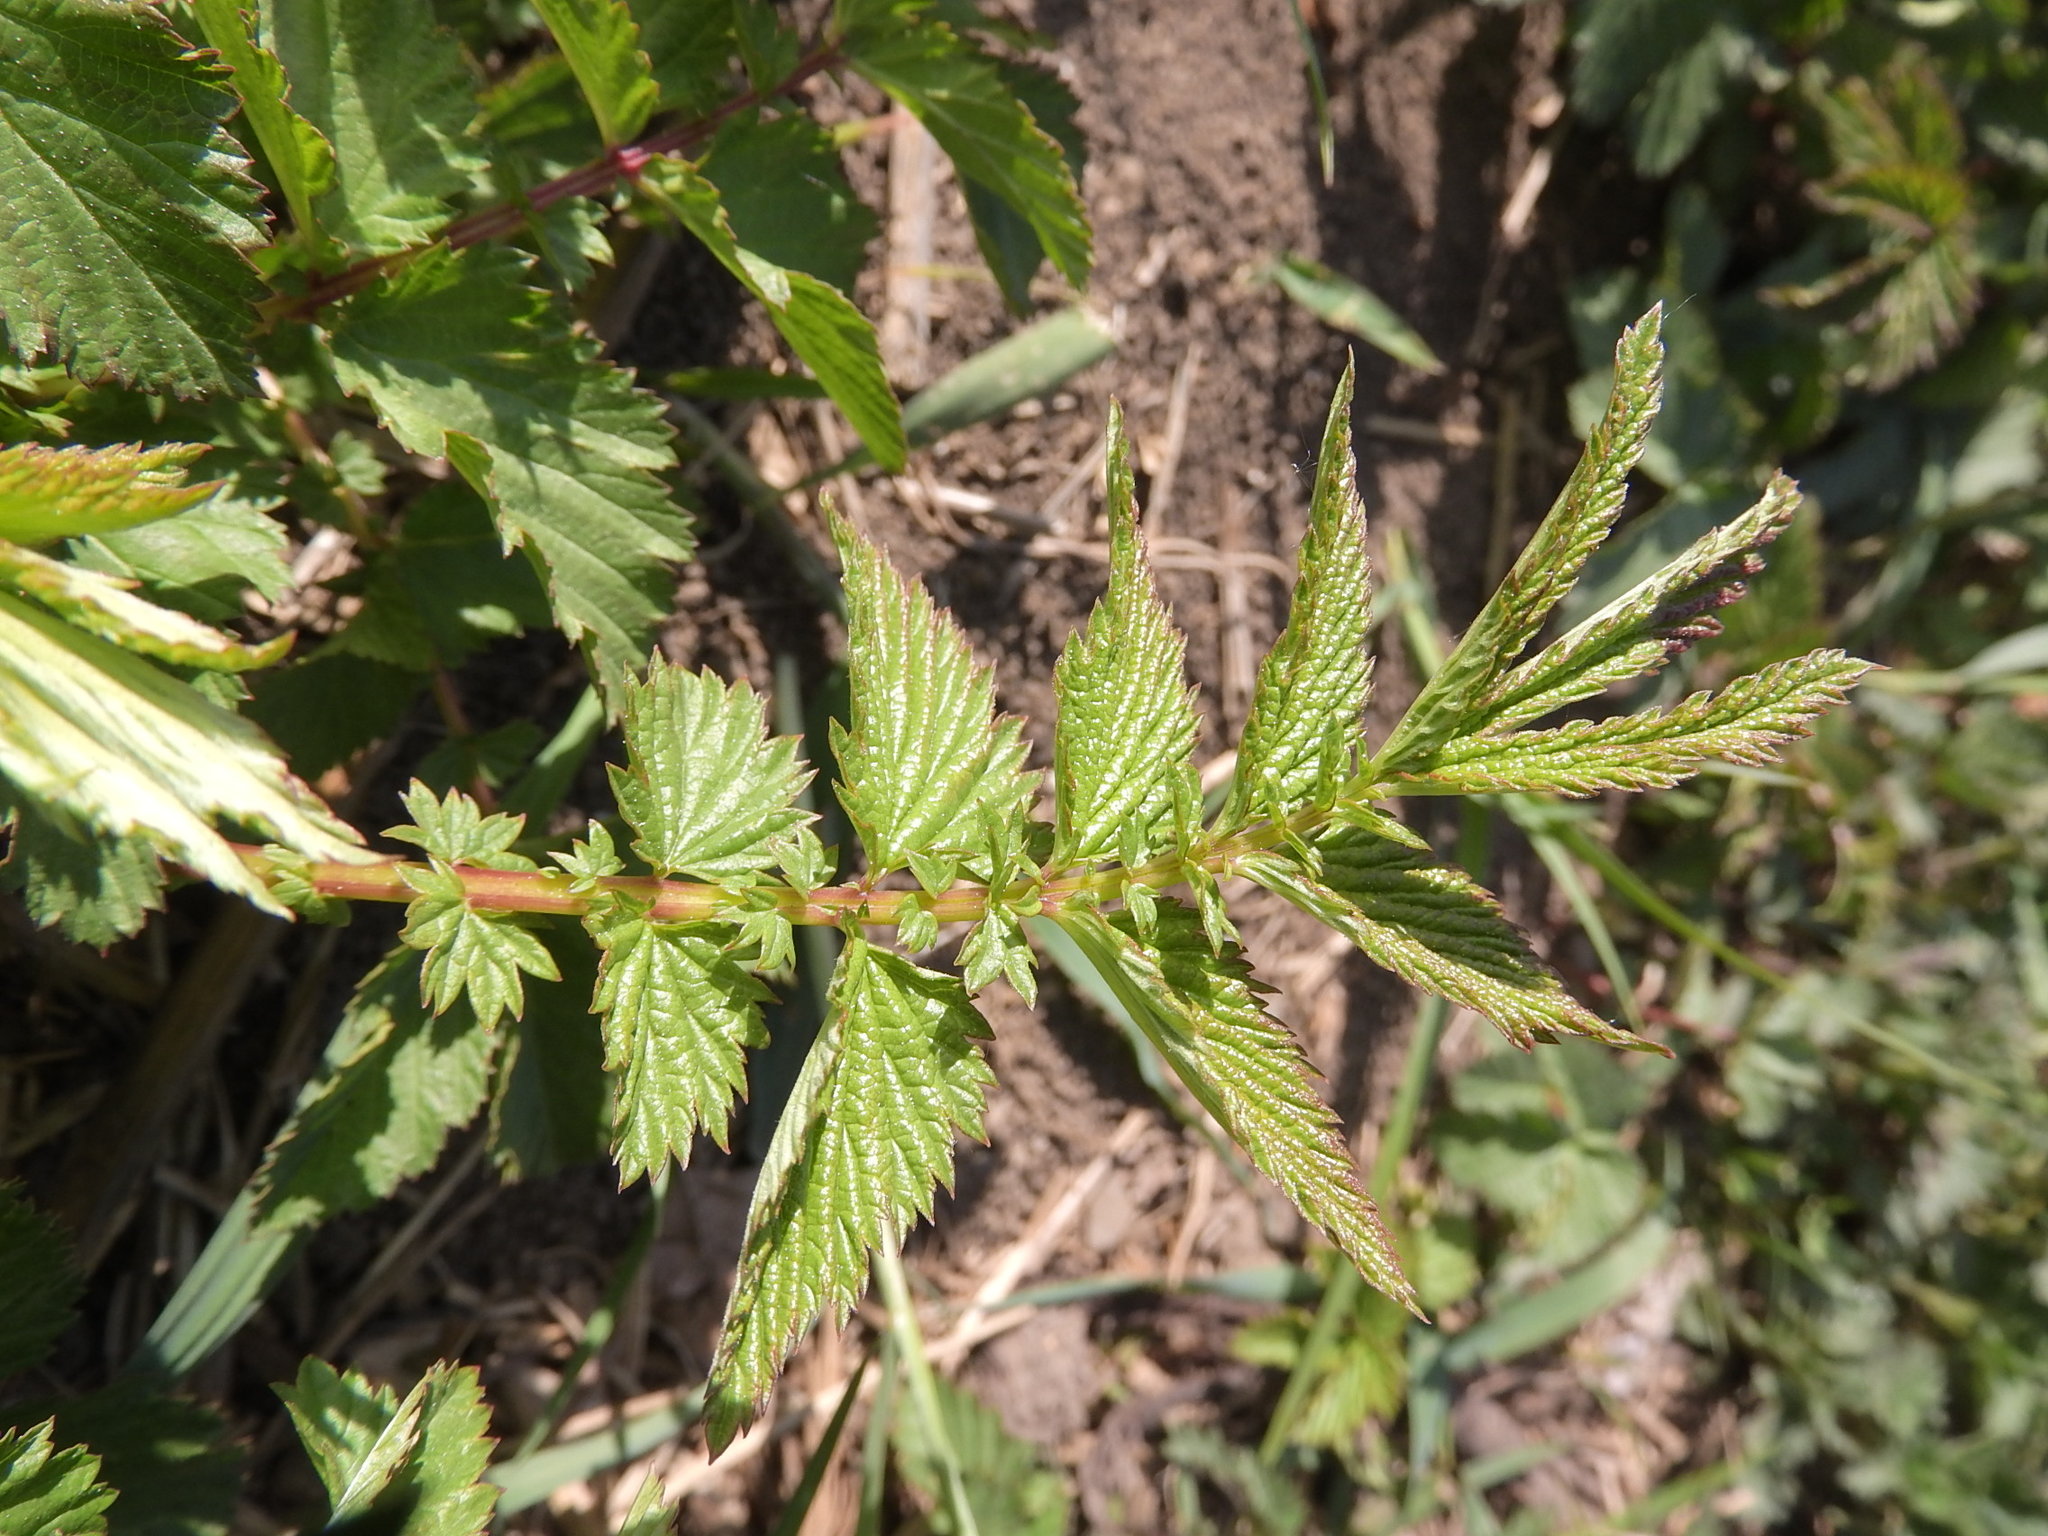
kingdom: Plantae
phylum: Tracheophyta
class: Magnoliopsida
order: Rosales
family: Rosaceae
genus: Filipendula
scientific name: Filipendula ulmaria
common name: Meadowsweet
